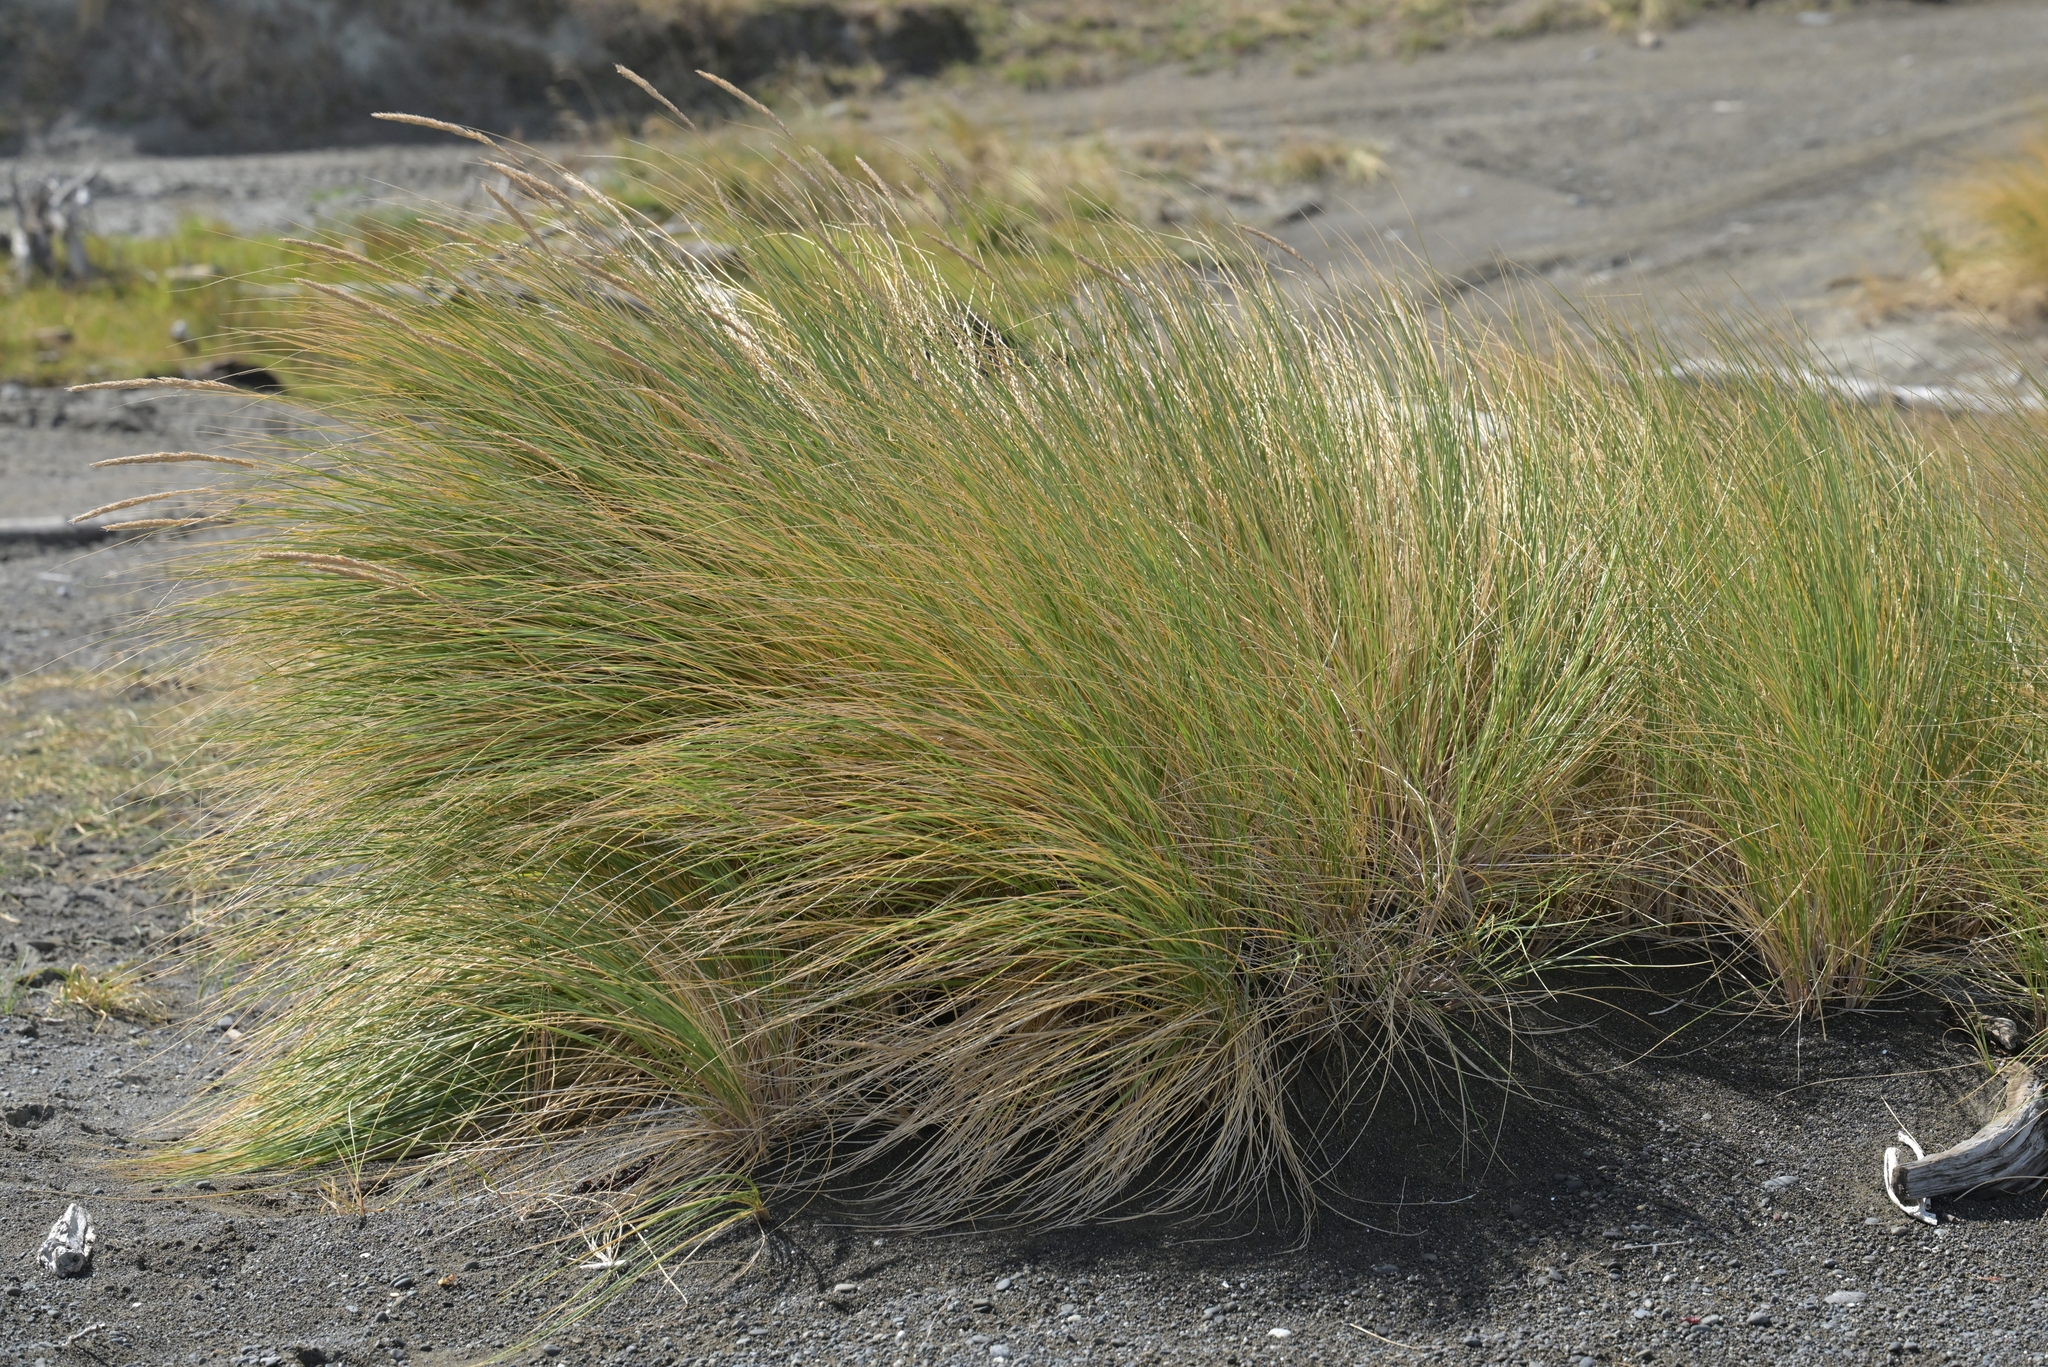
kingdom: Plantae
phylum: Tracheophyta
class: Liliopsida
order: Poales
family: Poaceae
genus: Calamagrostis
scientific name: Calamagrostis arenaria
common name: European beachgrass
